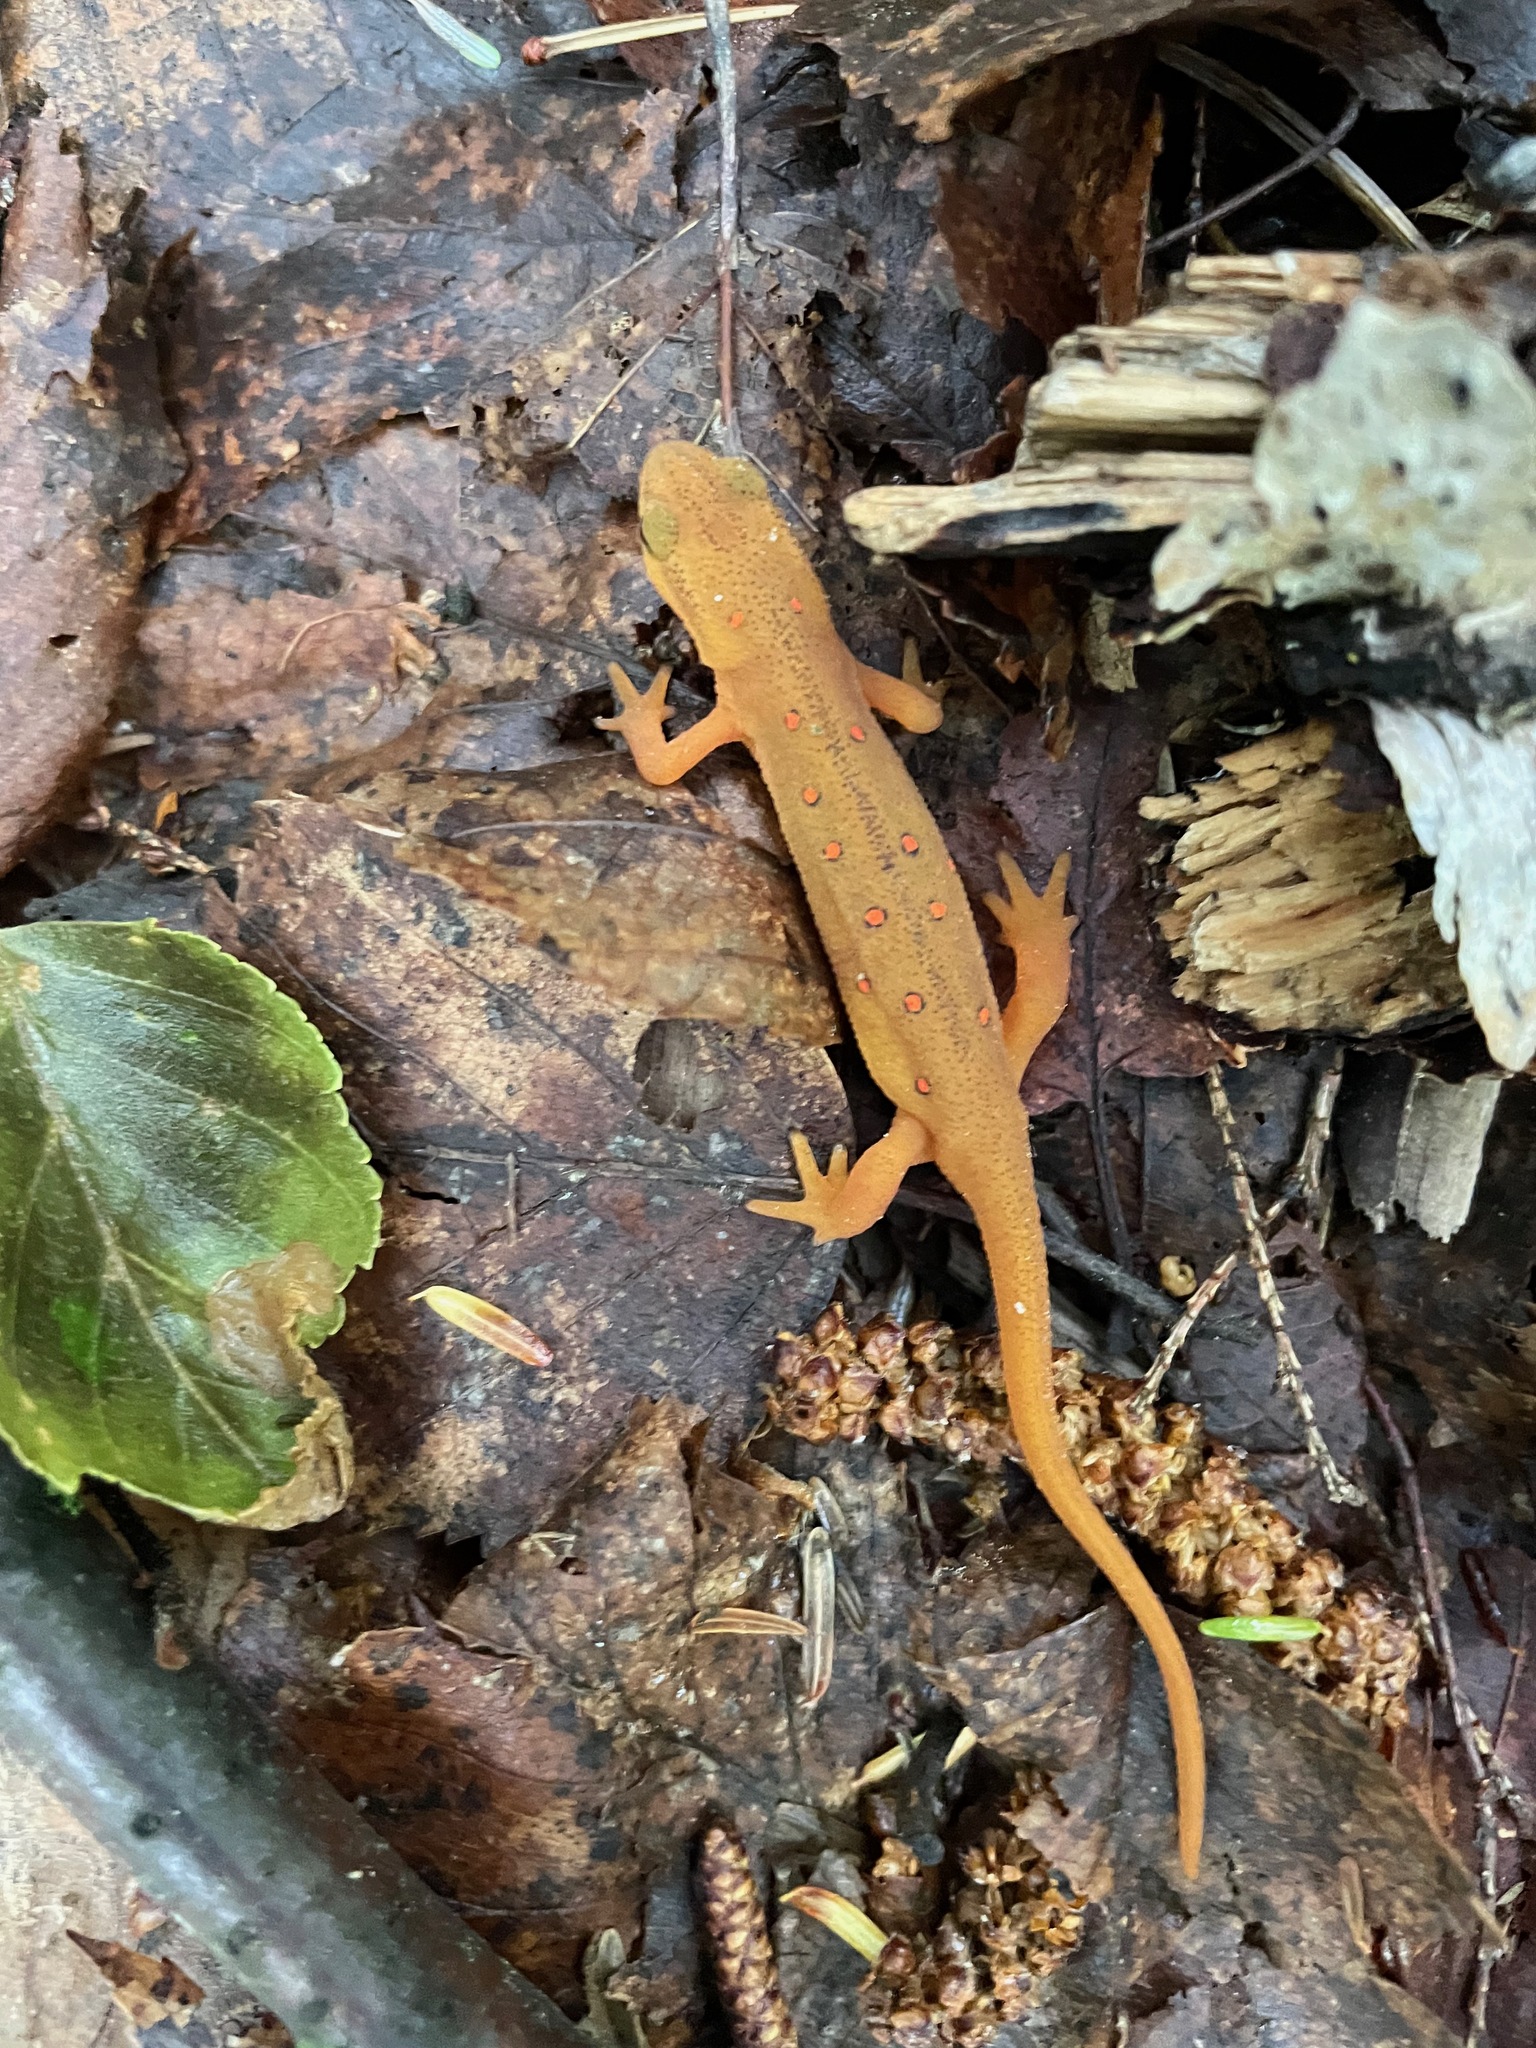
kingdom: Animalia
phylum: Chordata
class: Amphibia
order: Caudata
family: Salamandridae
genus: Notophthalmus
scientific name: Notophthalmus viridescens
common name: Eastern newt
